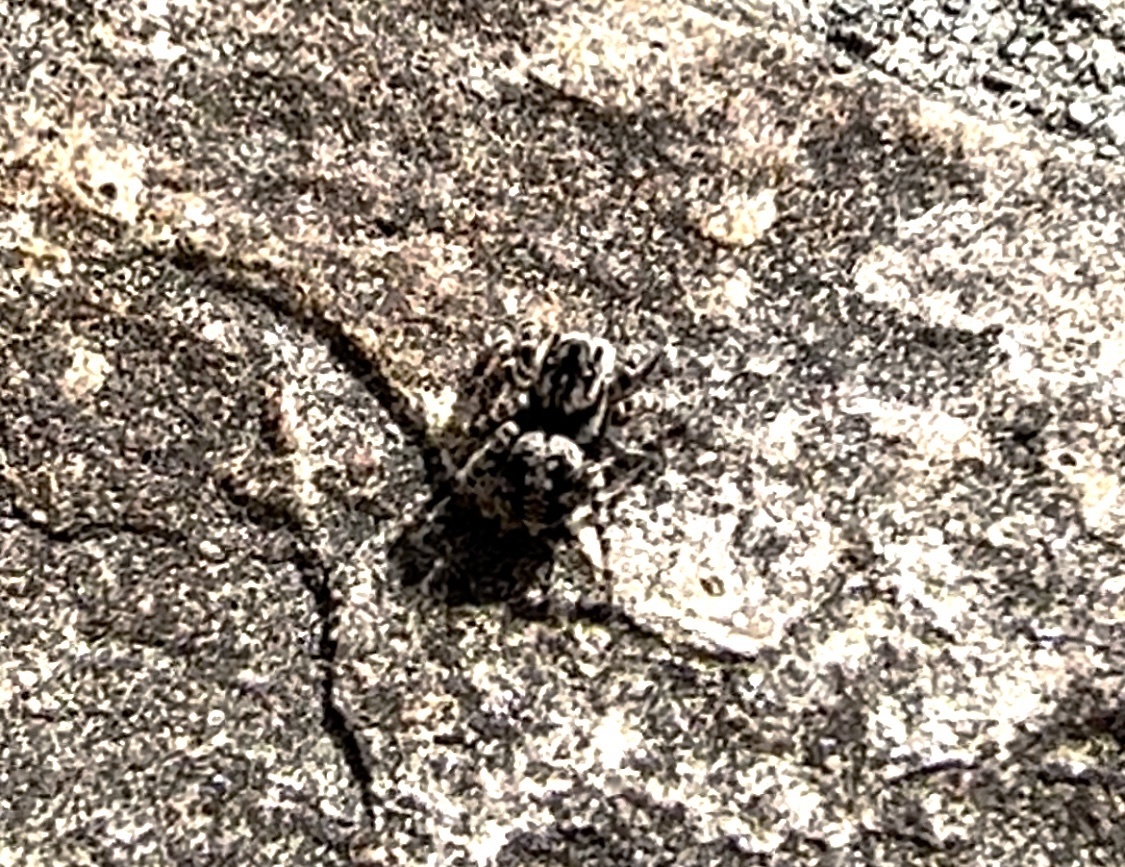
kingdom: Animalia
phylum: Arthropoda
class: Arachnida
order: Araneae
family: Salticidae
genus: Aelurillus
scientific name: Aelurillus v-insignitus
